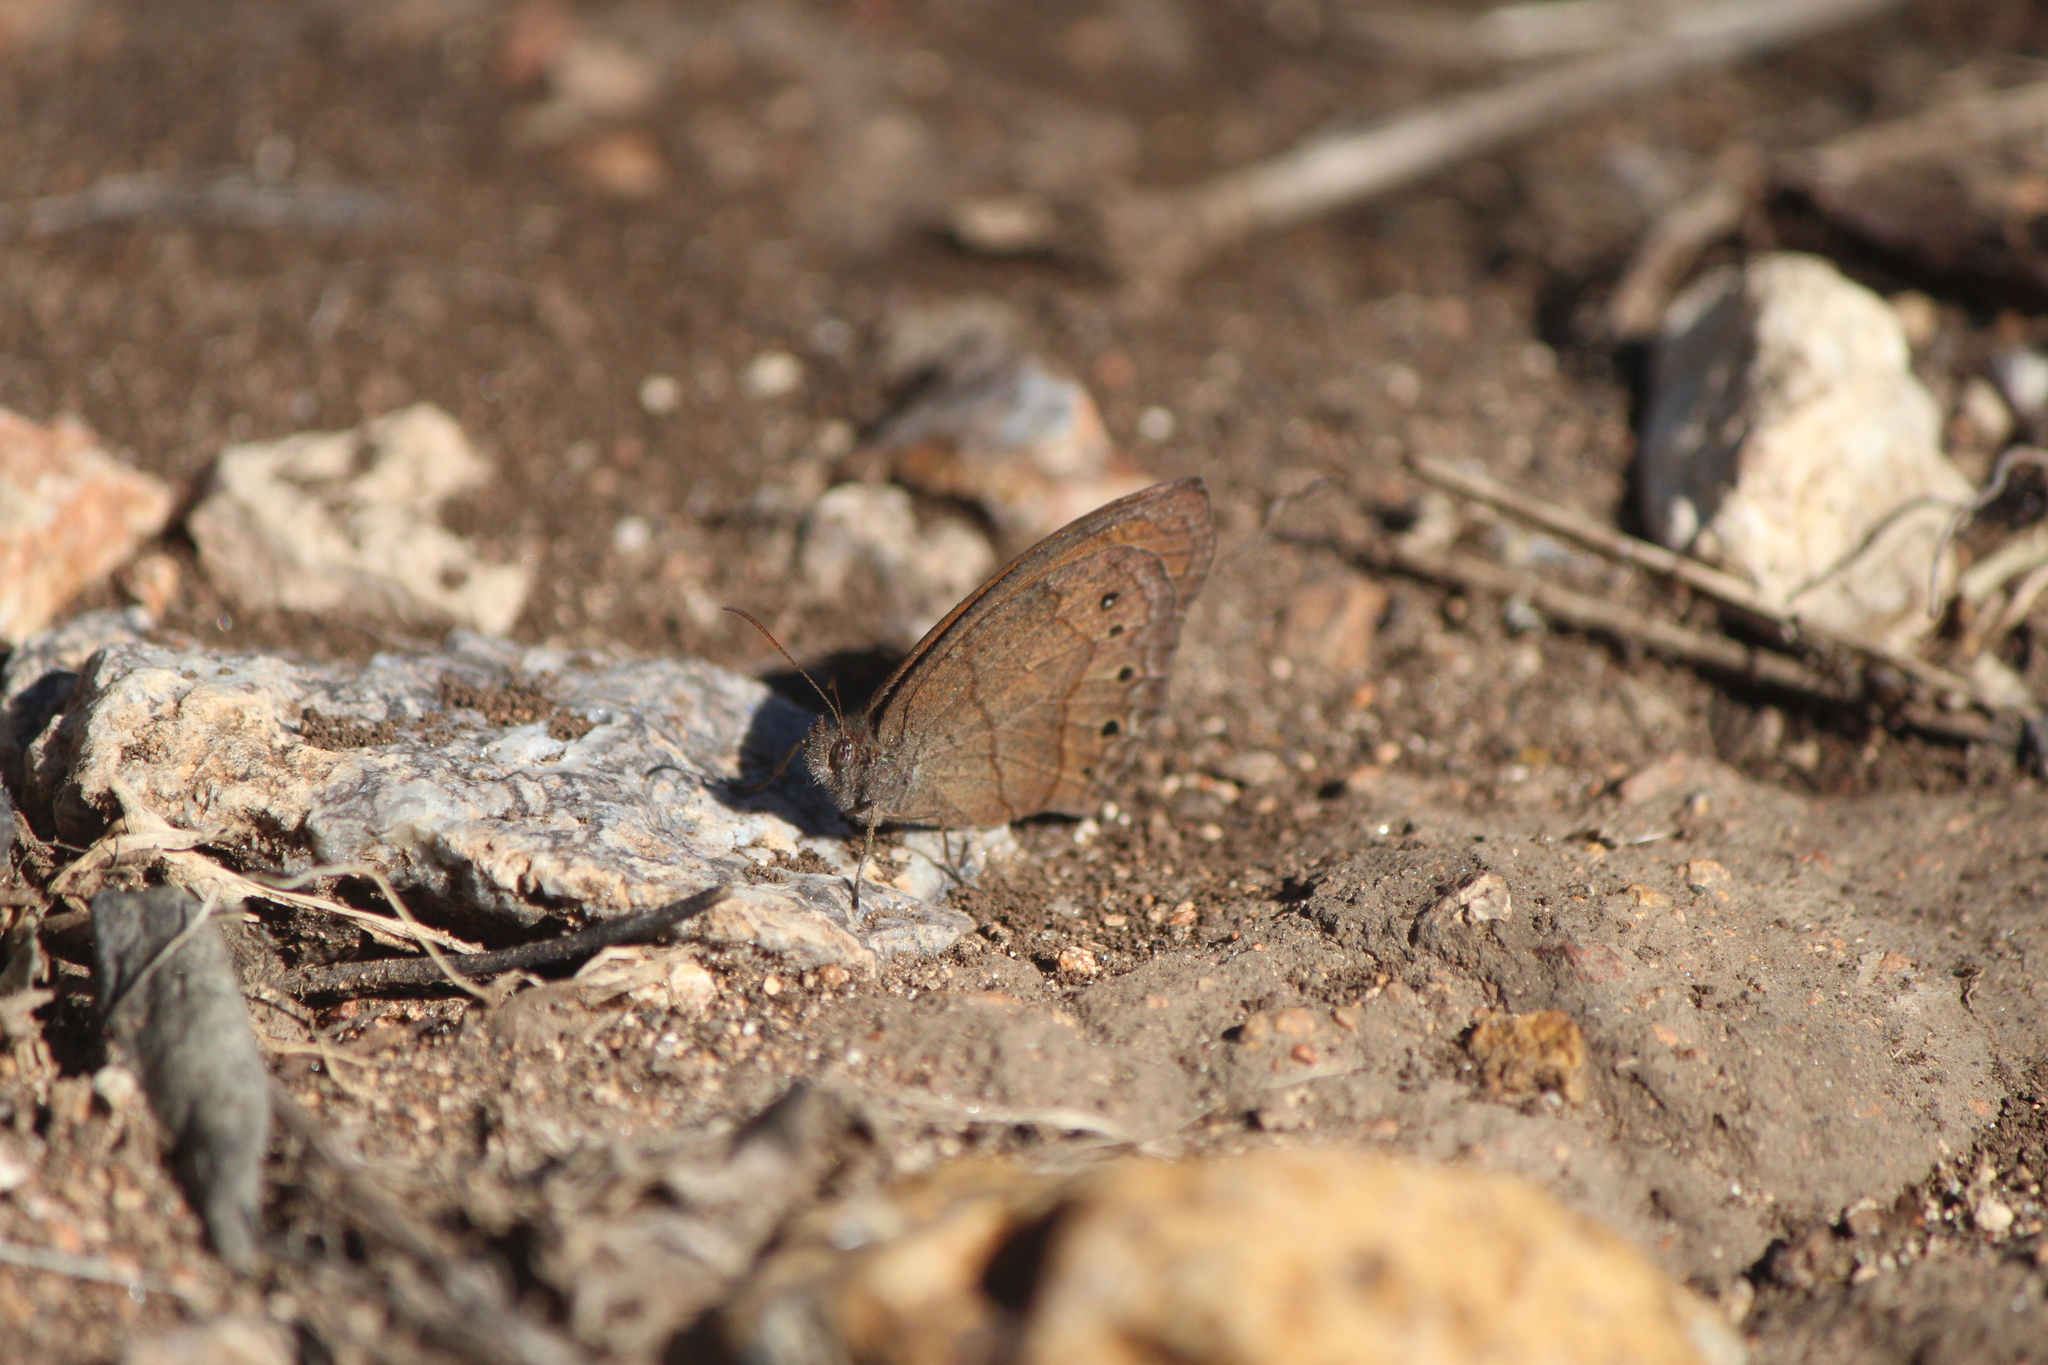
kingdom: Animalia
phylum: Arthropoda
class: Insecta
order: Lepidoptera
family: Nymphalidae
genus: Pindis
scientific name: Pindis squamistriga
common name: Variable satyr
